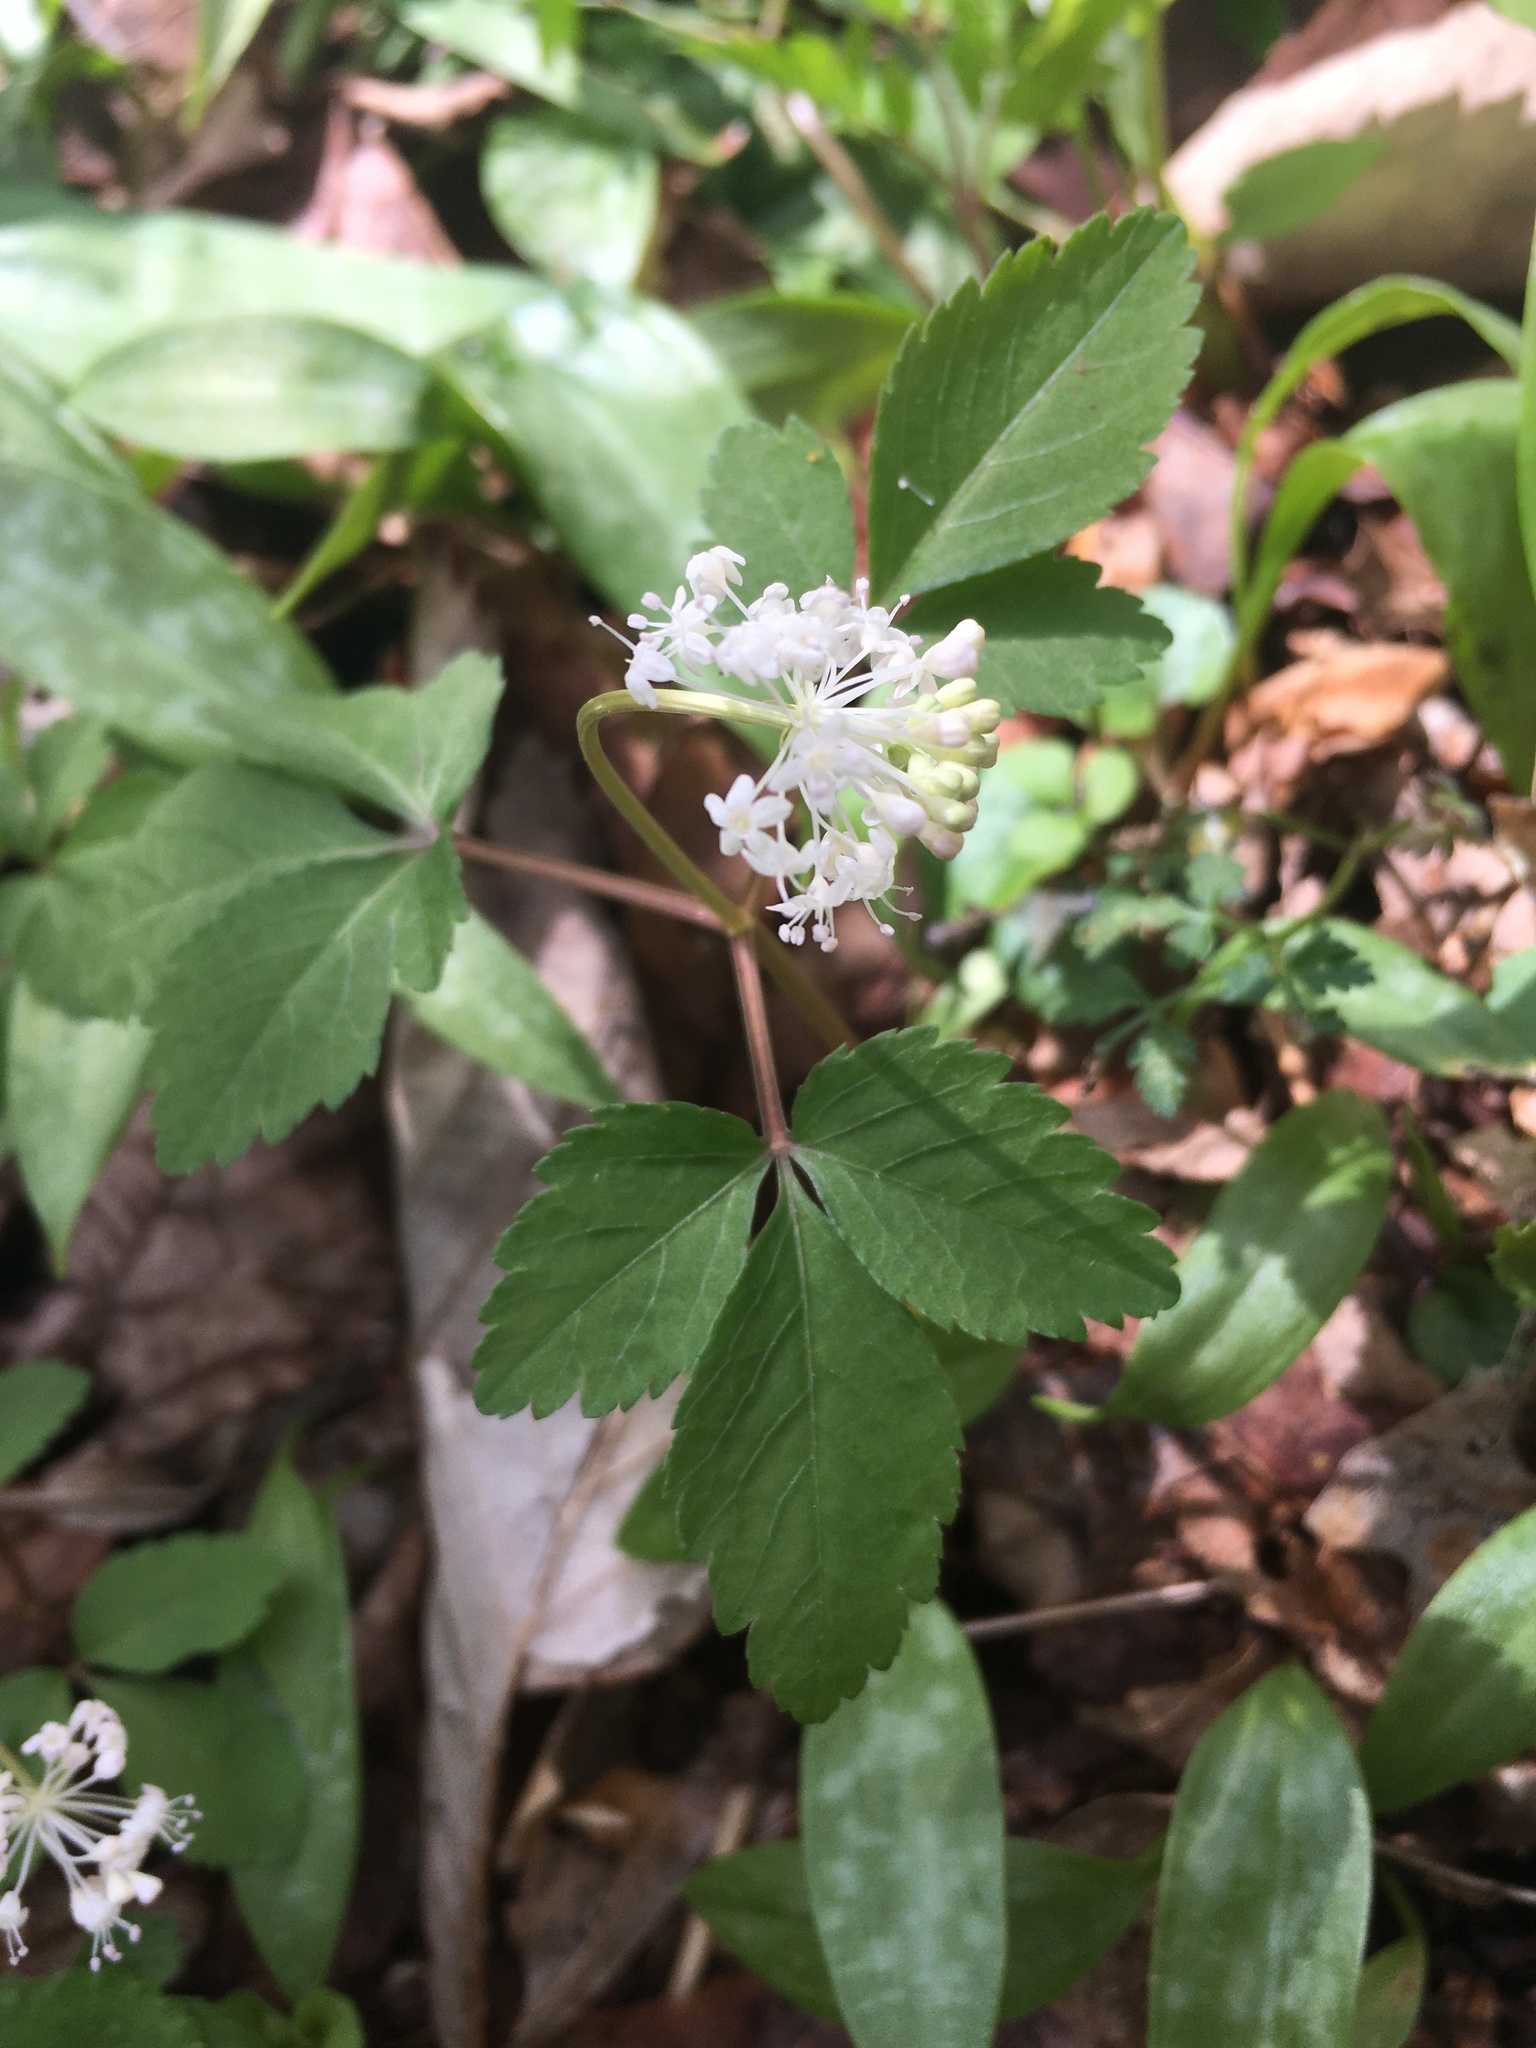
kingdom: Plantae
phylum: Tracheophyta
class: Magnoliopsida
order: Apiales
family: Araliaceae
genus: Panax
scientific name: Panax trifolius
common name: Dwarf ginseng
